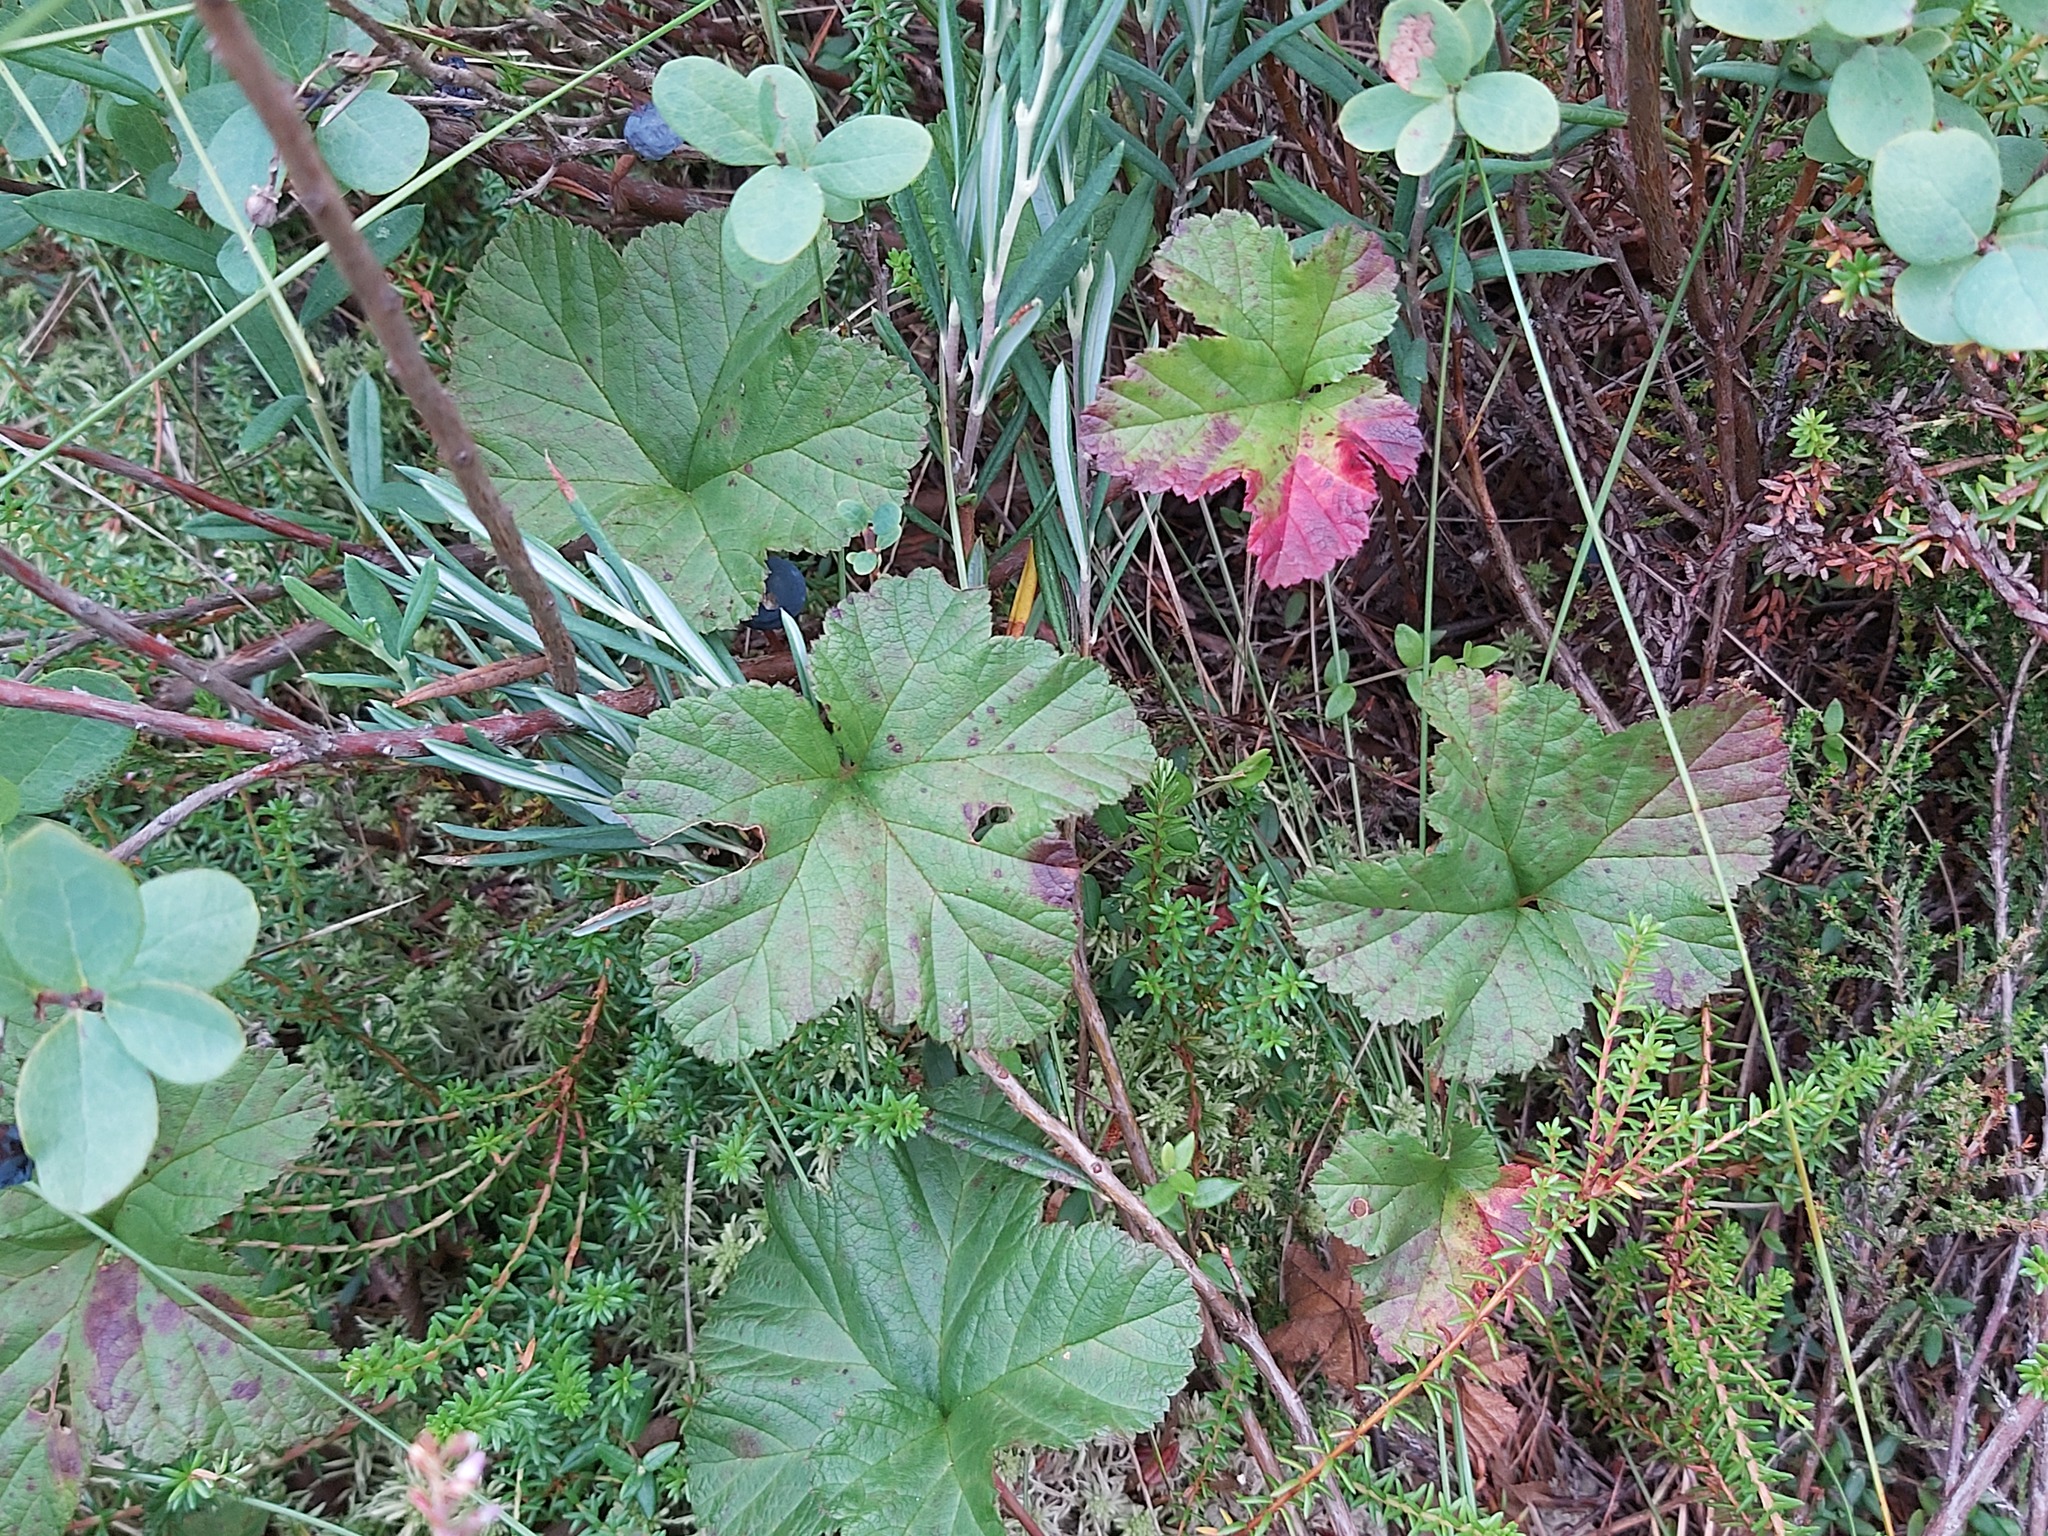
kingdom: Plantae
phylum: Tracheophyta
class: Magnoliopsida
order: Rosales
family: Rosaceae
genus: Rubus
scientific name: Rubus chamaemorus
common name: Cloudberry
